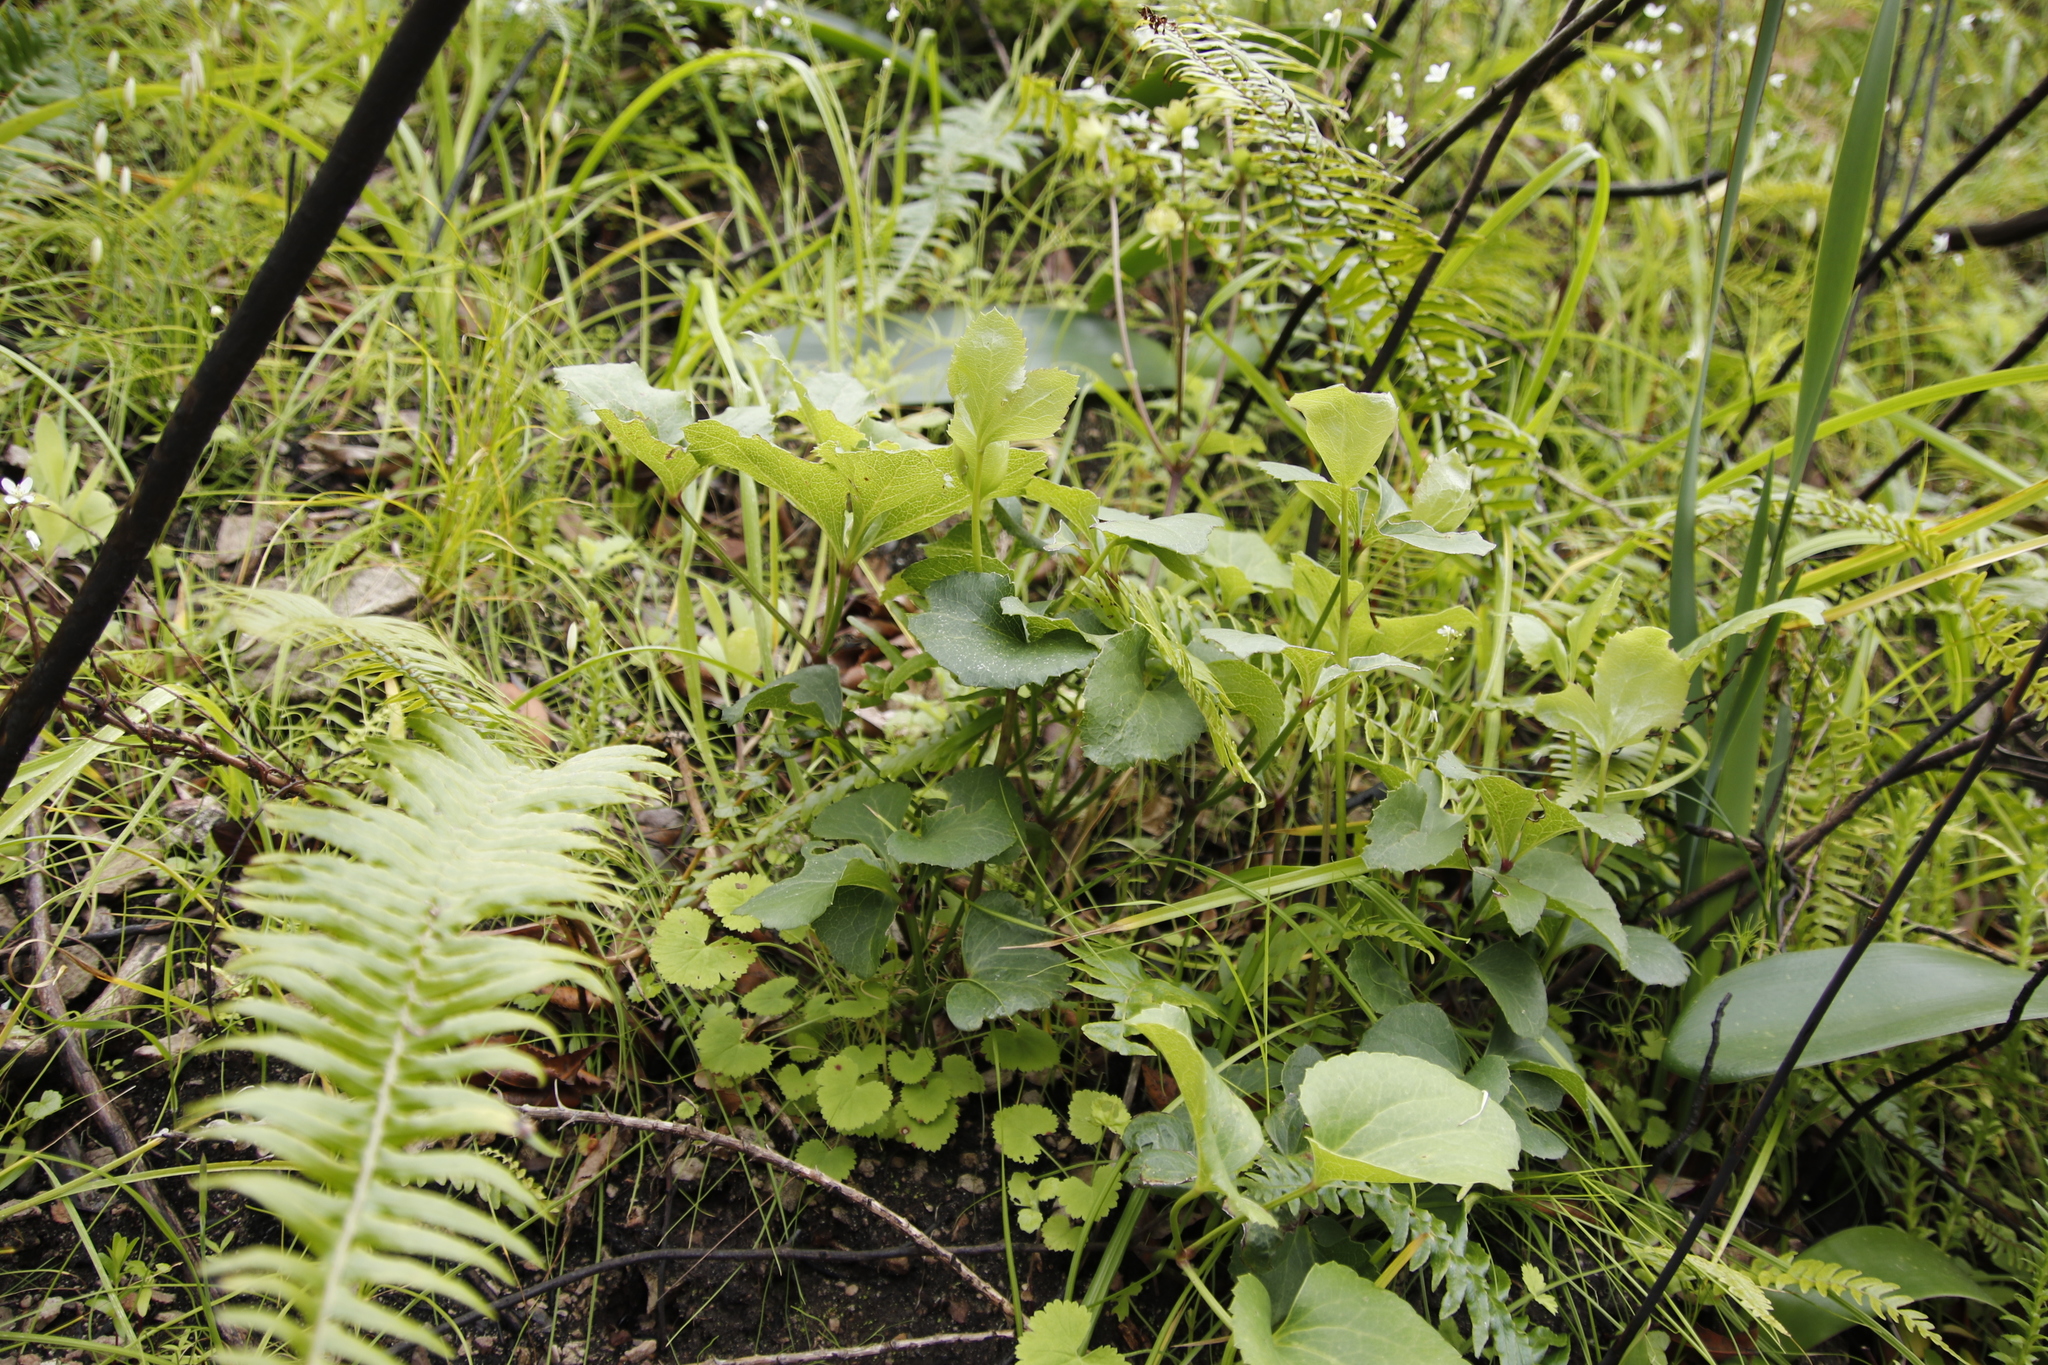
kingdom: Plantae
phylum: Tracheophyta
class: Magnoliopsida
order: Ranunculales
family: Ranunculaceae
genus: Knowltonia
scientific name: Knowltonia vesicatoria
